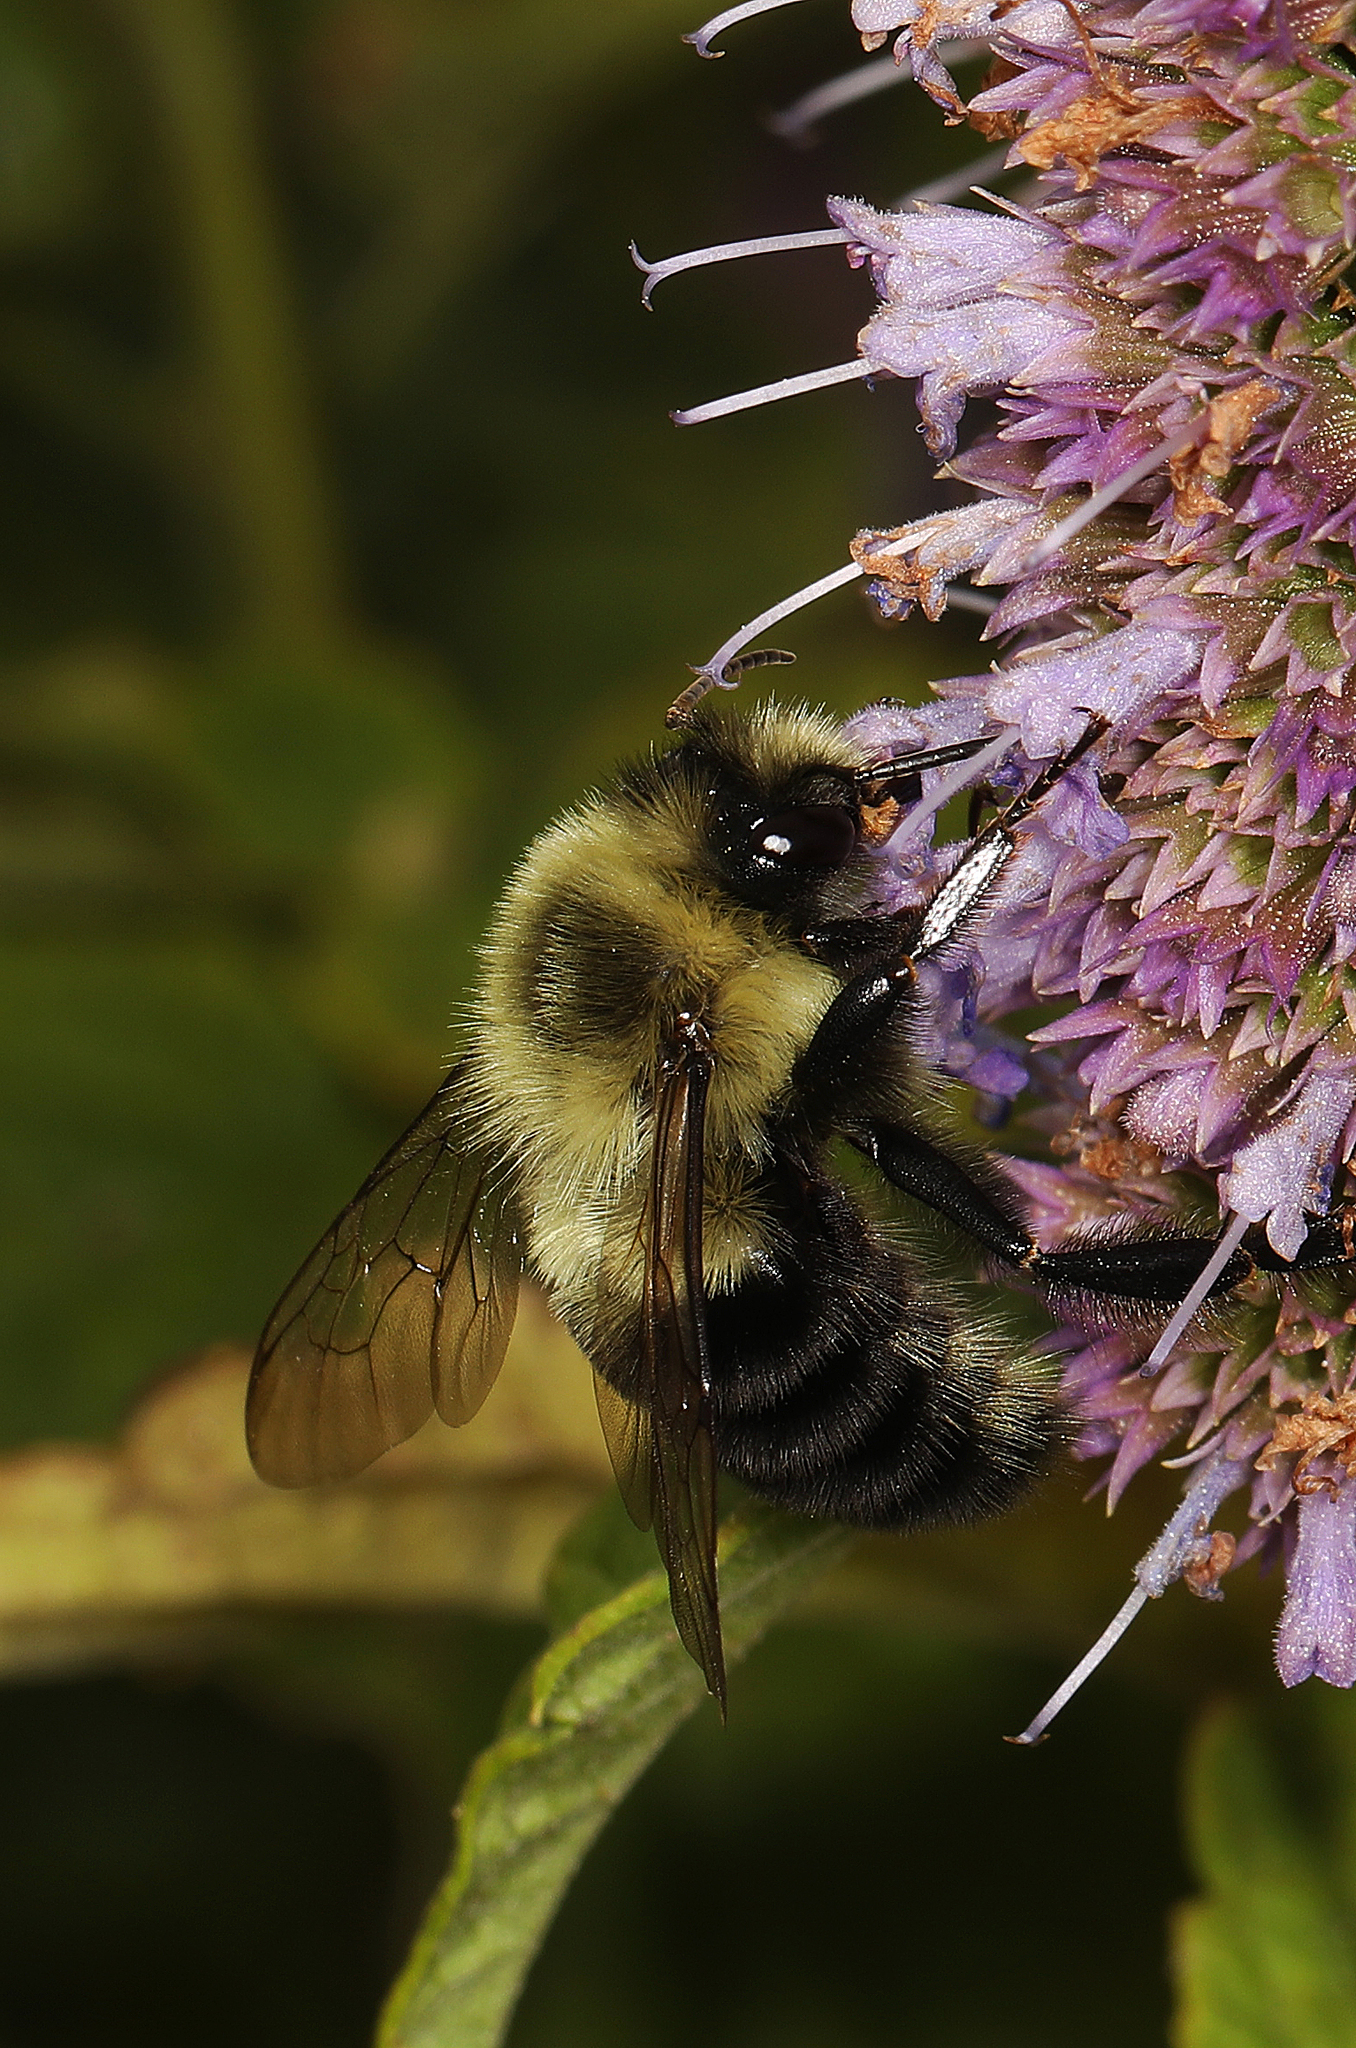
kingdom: Animalia
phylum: Arthropoda
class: Insecta
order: Hymenoptera
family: Apidae
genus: Bombus
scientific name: Bombus impatiens
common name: Common eastern bumble bee
